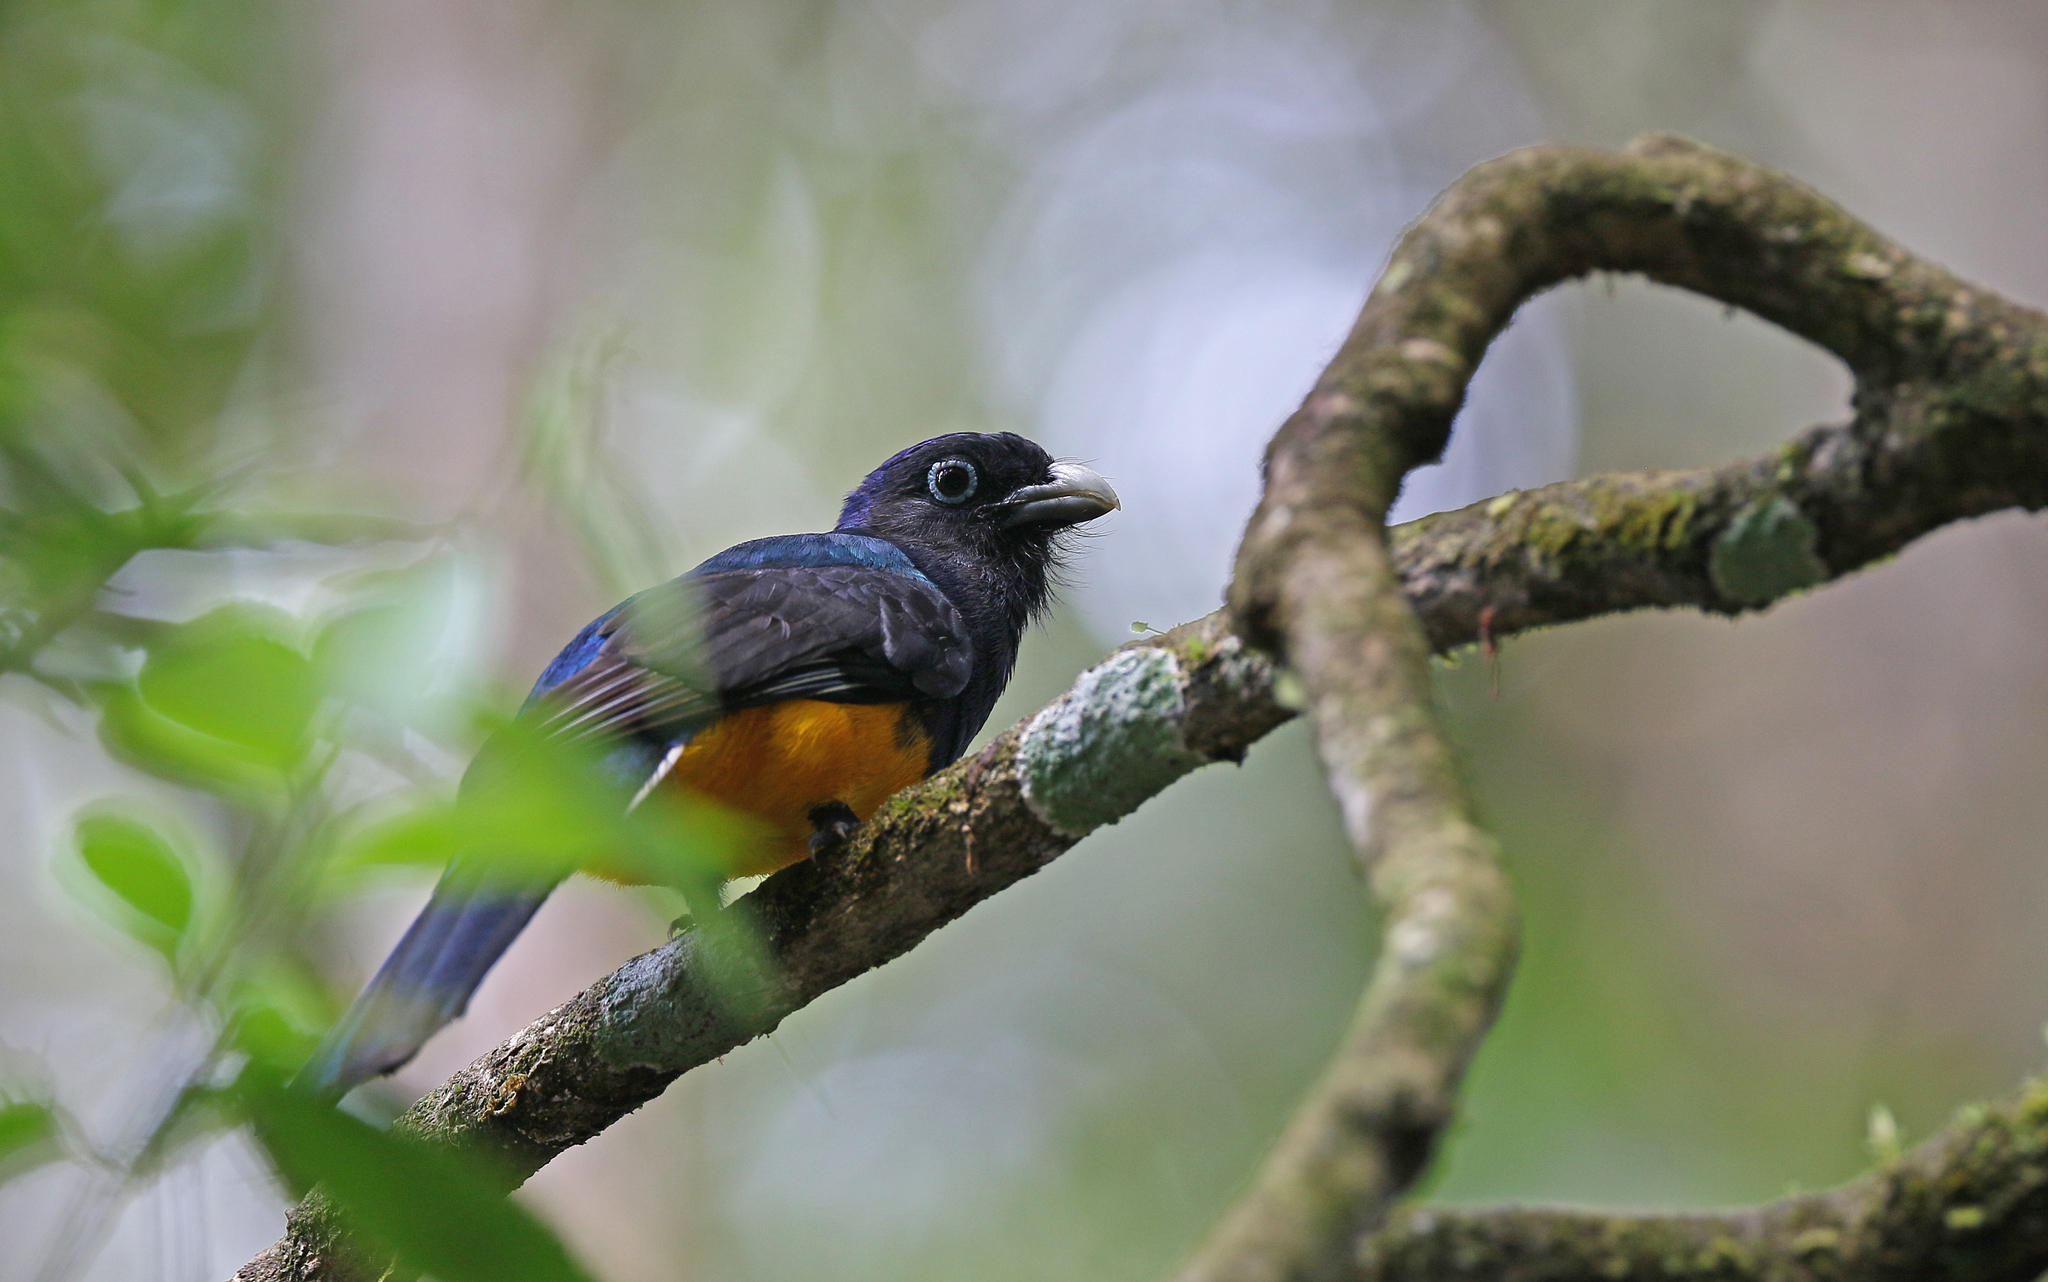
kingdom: Animalia
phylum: Chordata
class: Aves
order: Trogoniformes
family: Trogonidae
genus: Trogon
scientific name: Trogon viridis
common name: Green-backed trogon
